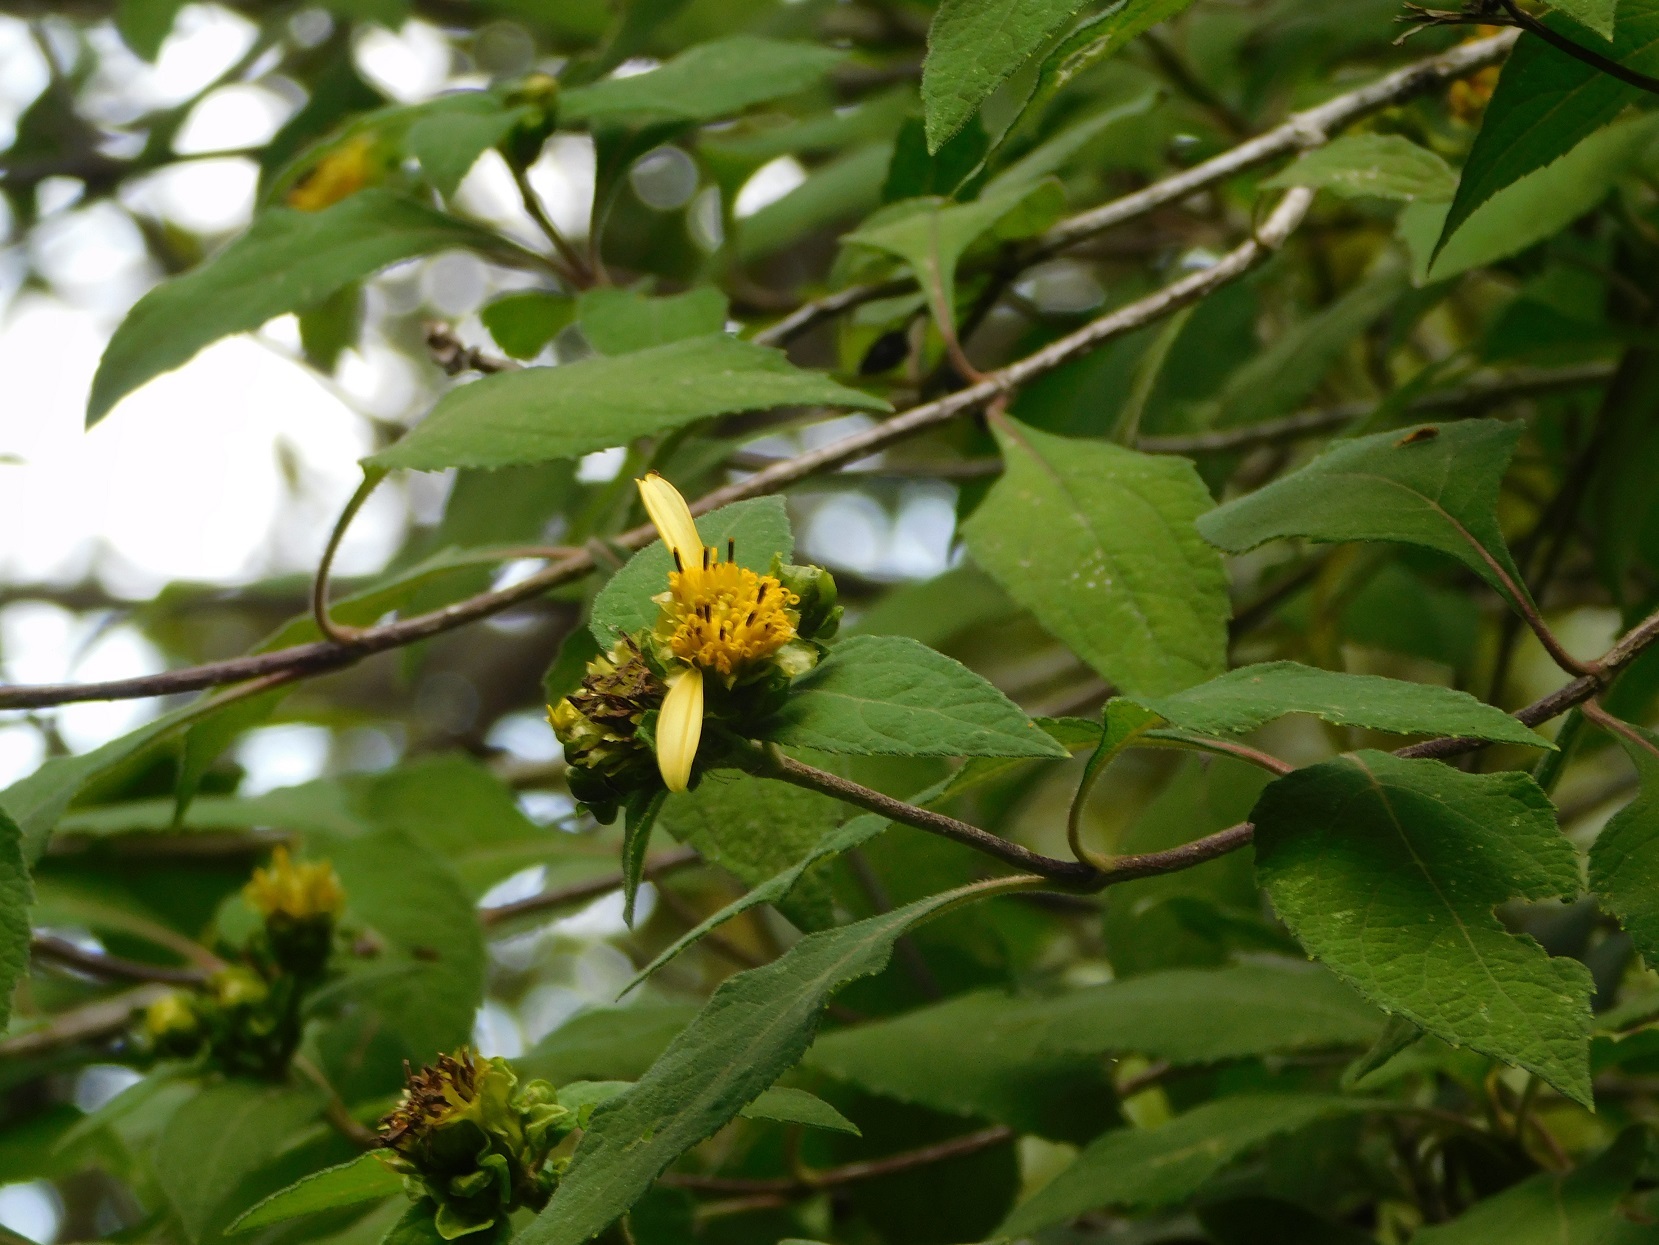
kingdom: Plantae
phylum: Tracheophyta
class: Magnoliopsida
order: Asterales
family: Asteraceae
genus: Verbesina
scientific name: Verbesina strotheri
